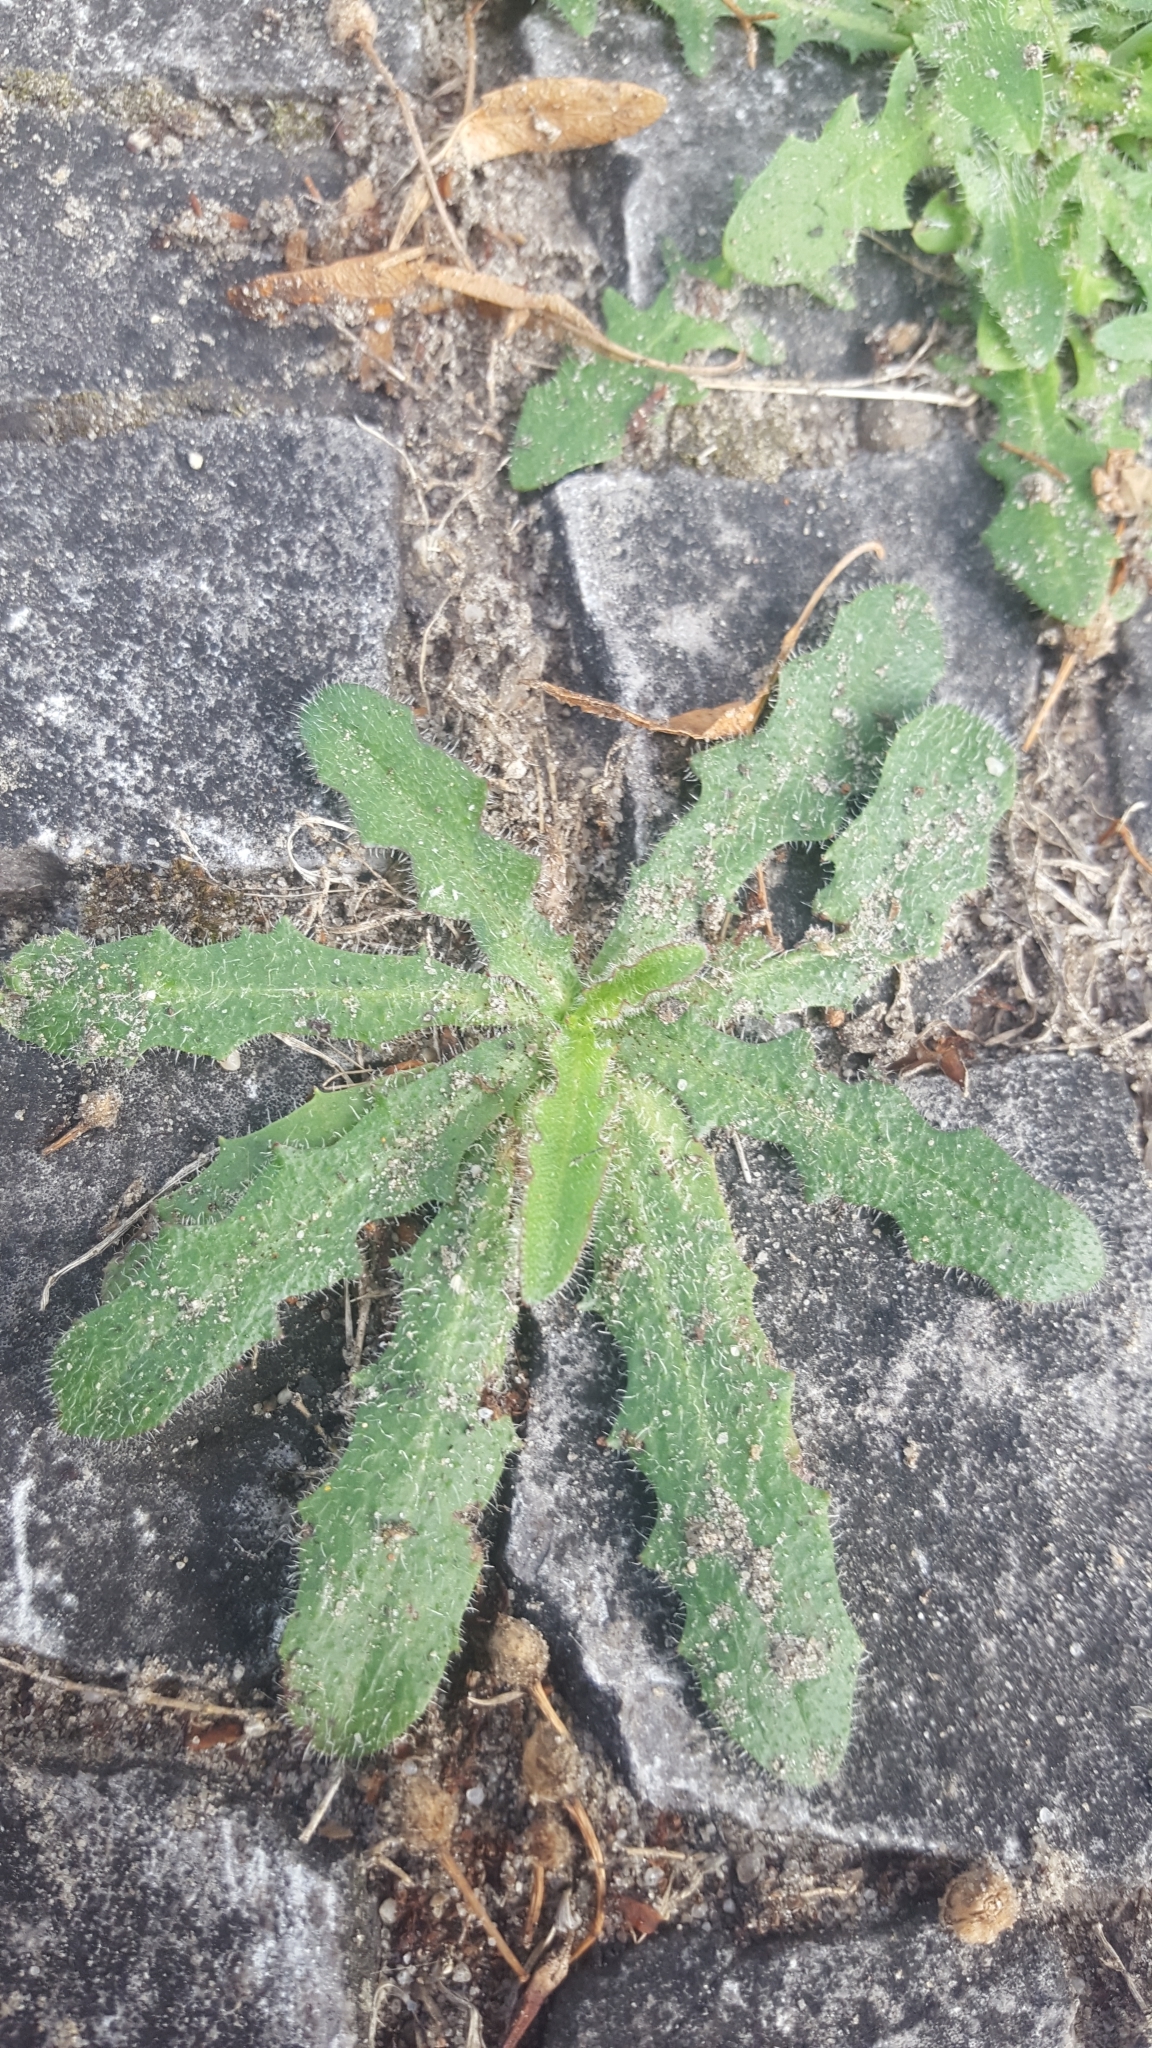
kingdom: Plantae
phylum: Tracheophyta
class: Magnoliopsida
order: Asterales
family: Asteraceae
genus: Hypochaeris
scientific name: Hypochaeris radicata
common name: Flatweed
